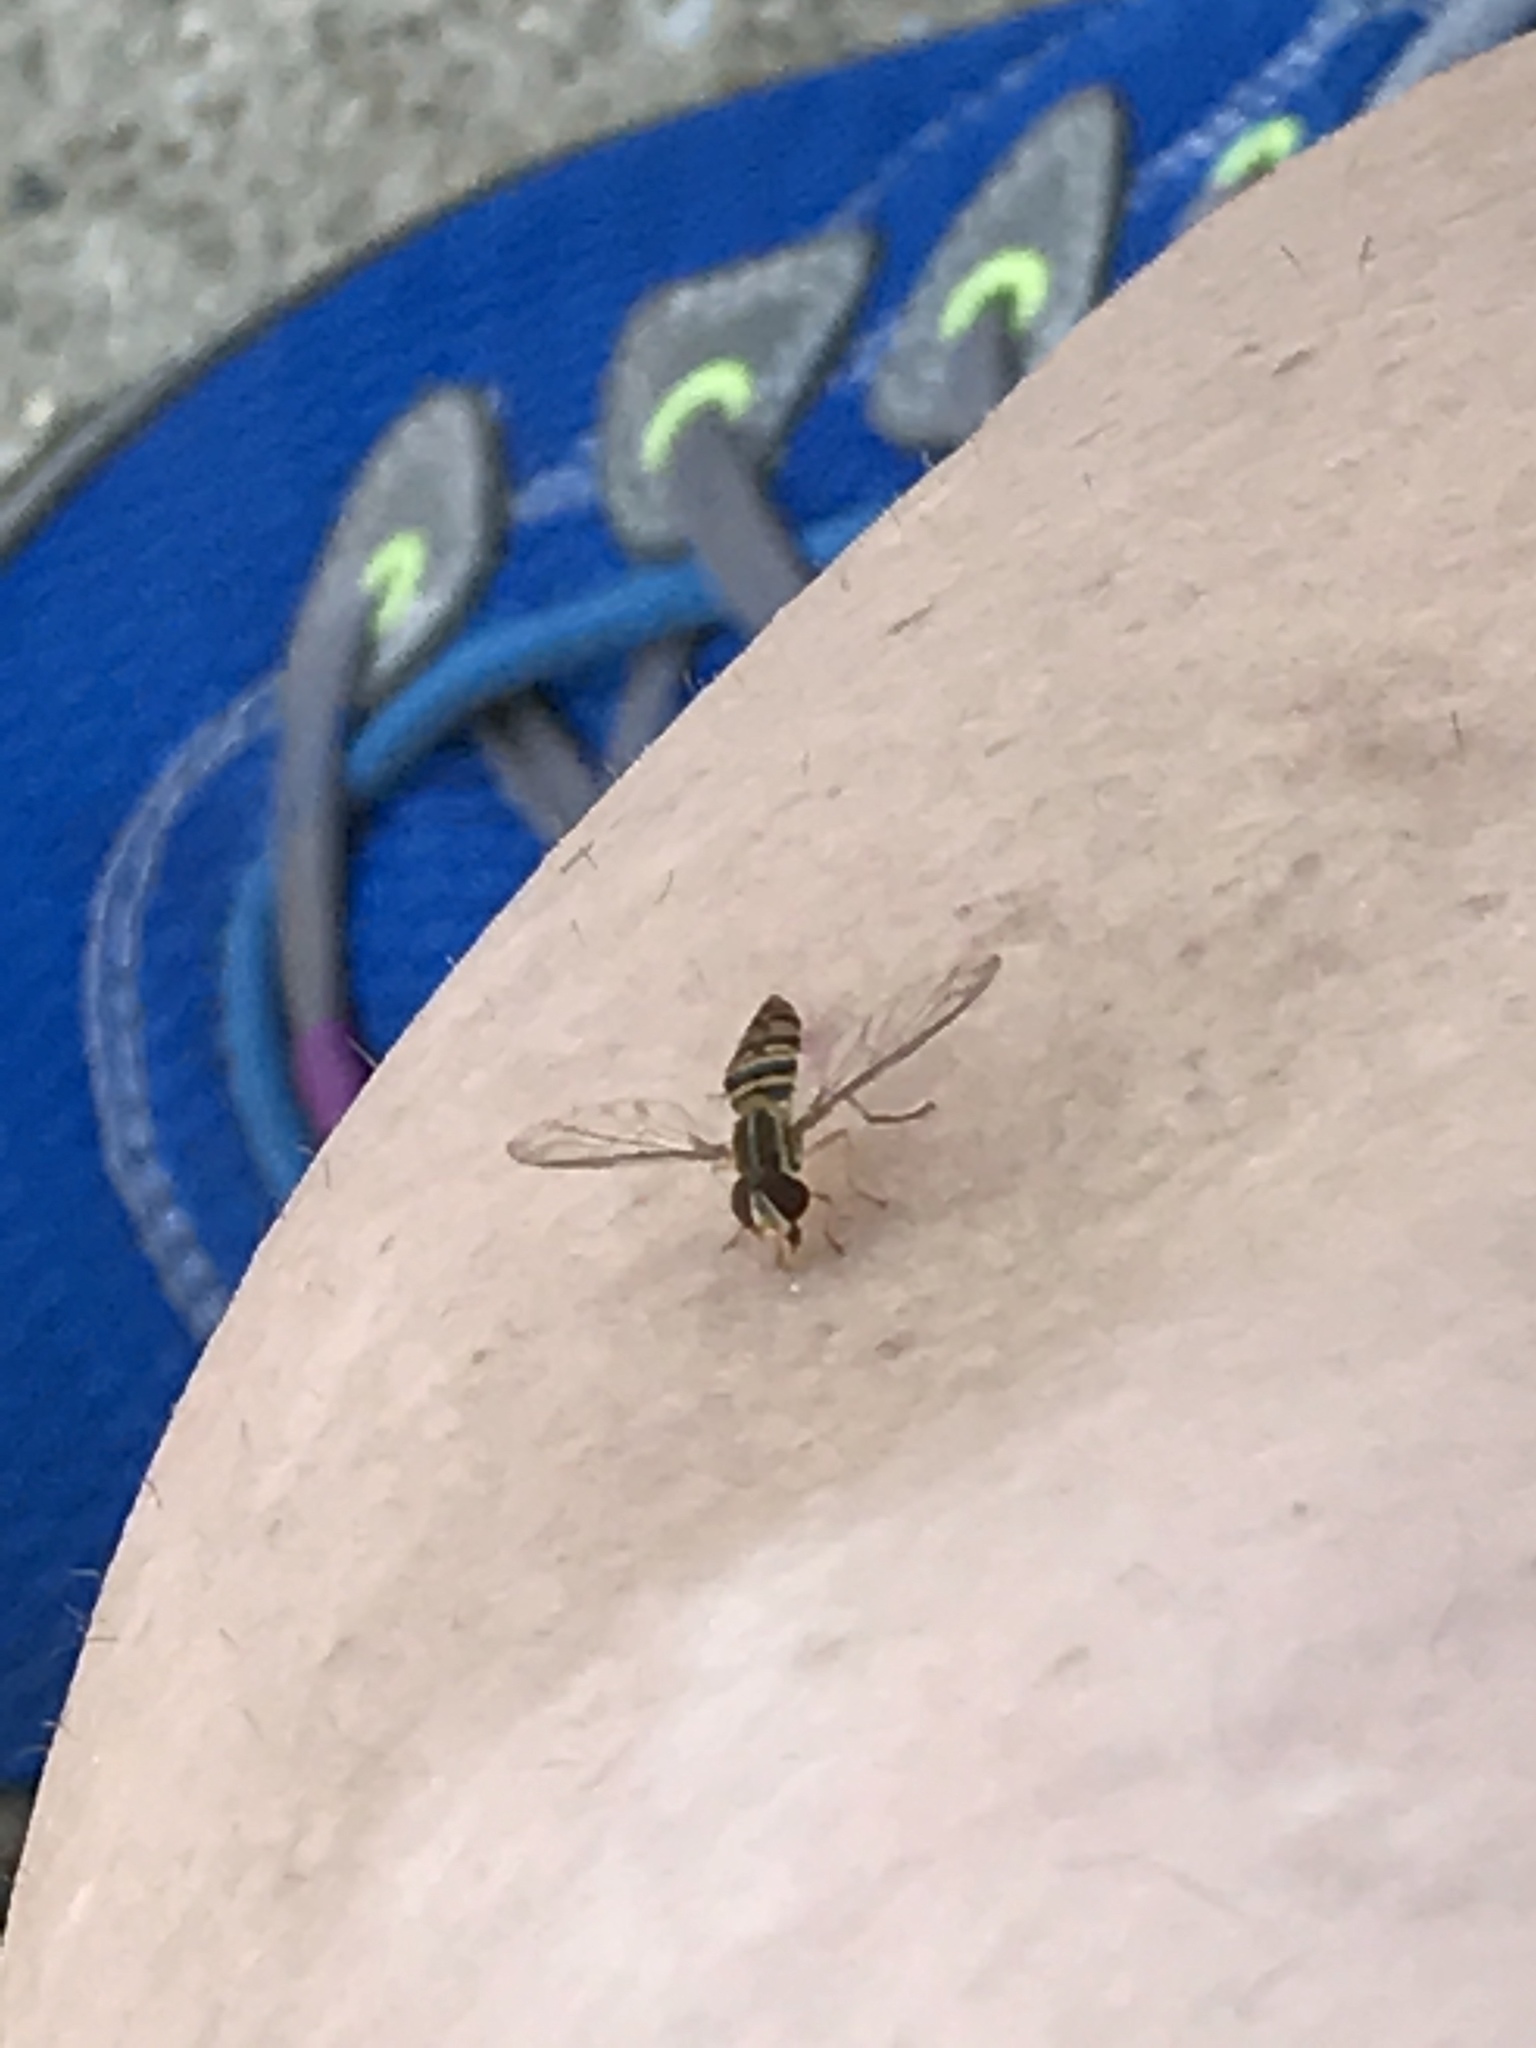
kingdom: Animalia
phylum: Arthropoda
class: Insecta
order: Diptera
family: Syrphidae
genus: Toxomerus
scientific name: Toxomerus politus
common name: Maize calligrapher
